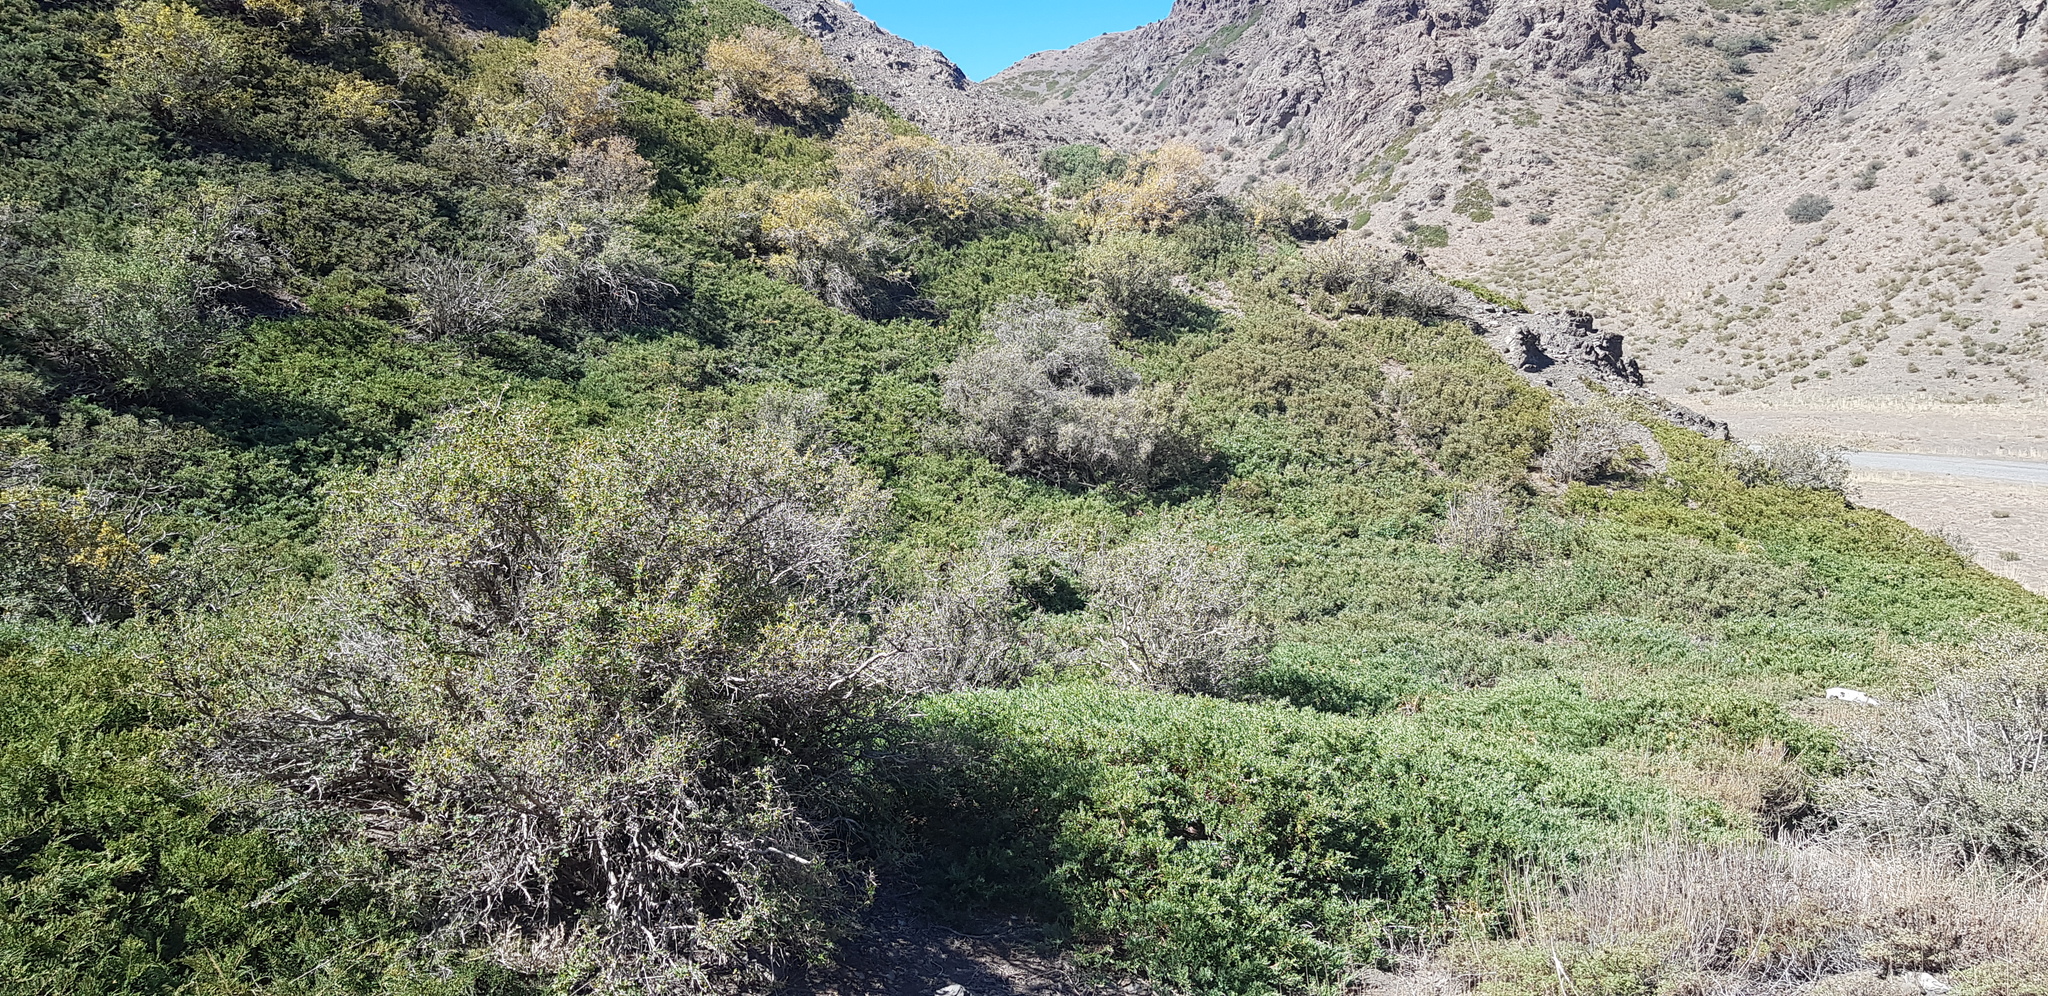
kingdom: Plantae
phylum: Tracheophyta
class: Pinopsida
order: Pinales
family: Cupressaceae
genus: Juniperus
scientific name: Juniperus sabina
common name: Savin
